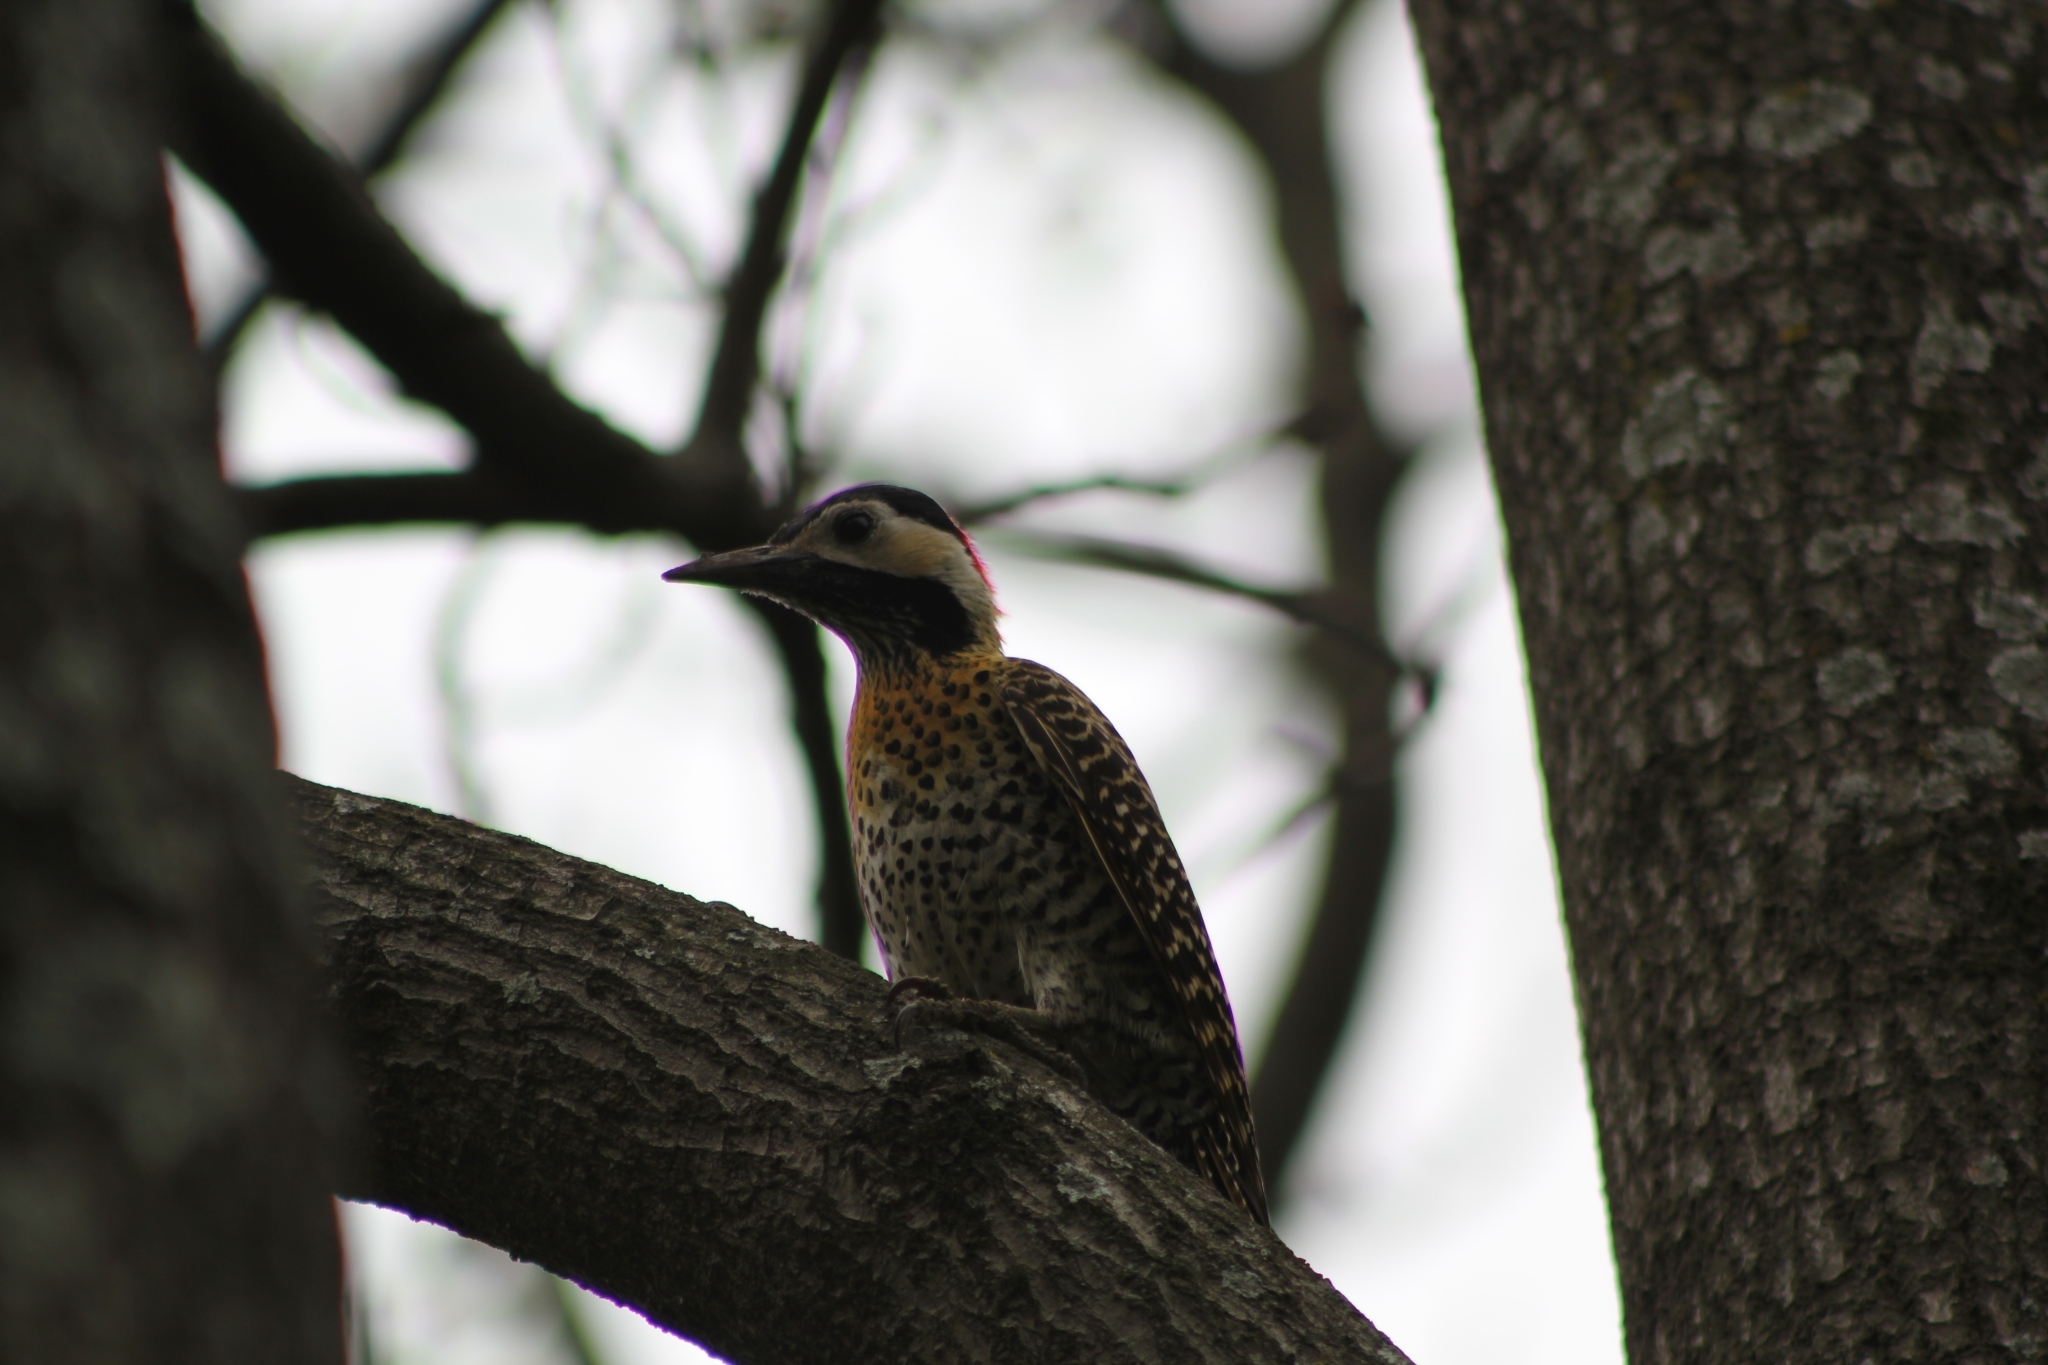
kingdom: Animalia
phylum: Chordata
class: Aves
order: Piciformes
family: Picidae
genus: Colaptes
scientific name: Colaptes melanochloros
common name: Green-barred woodpecker
